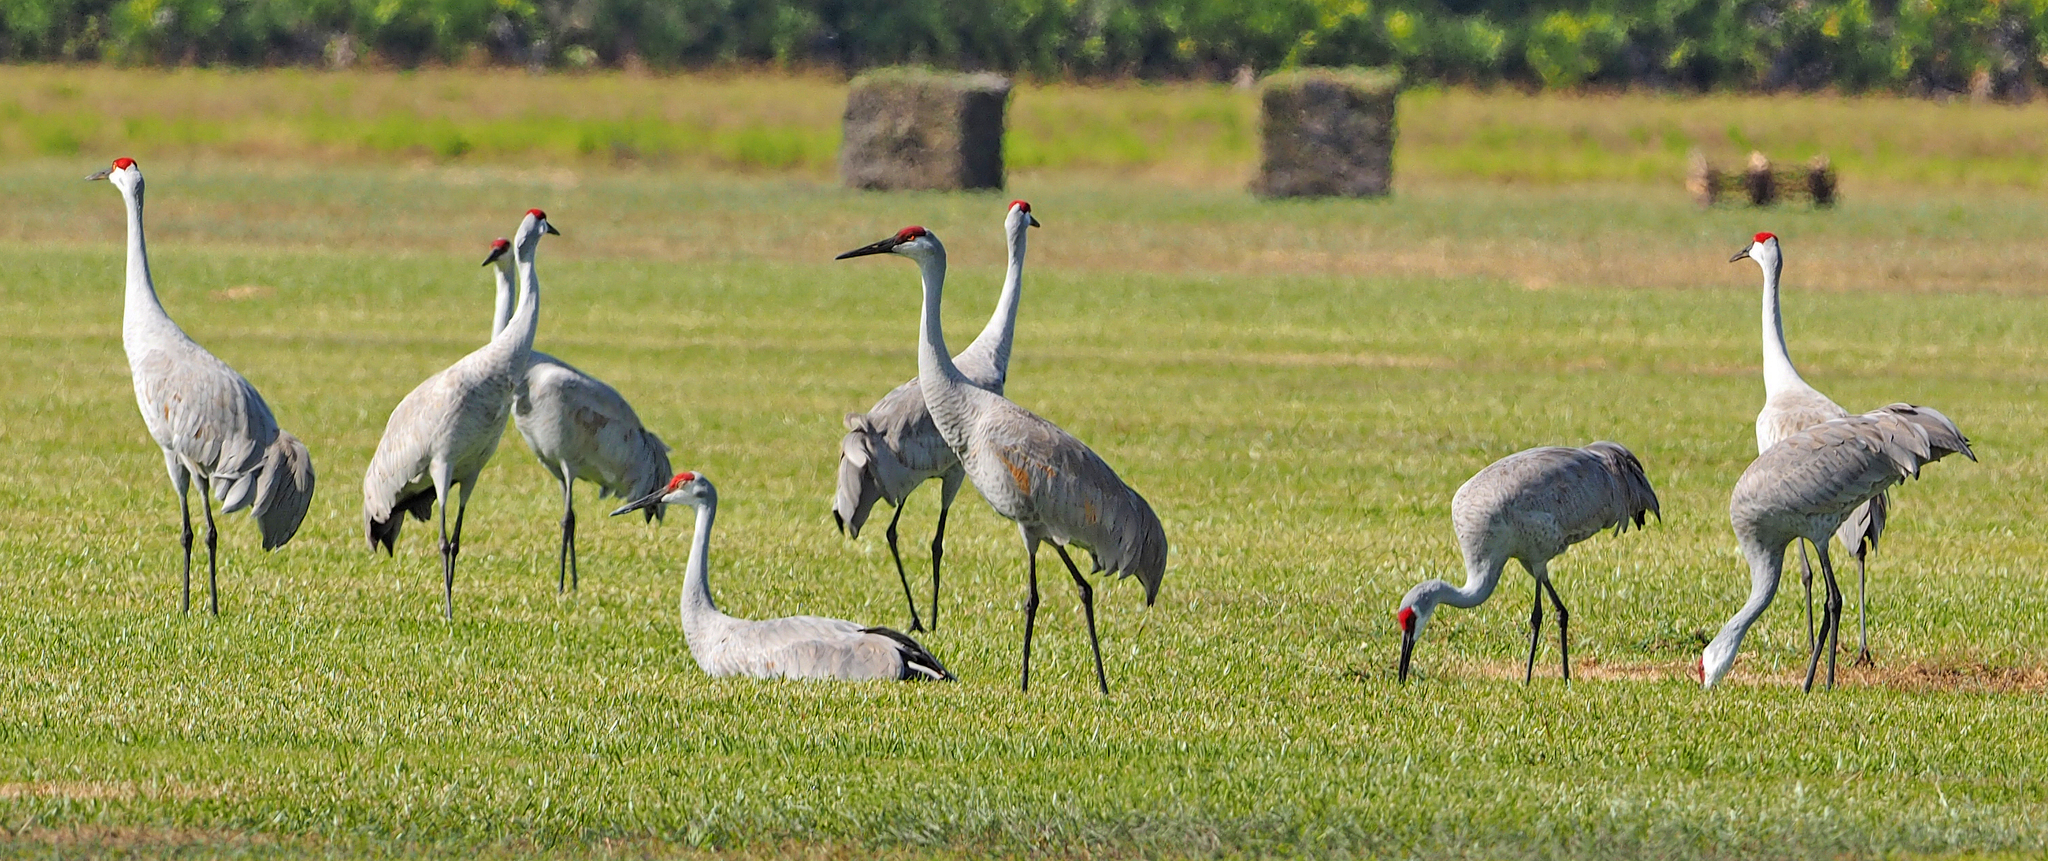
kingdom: Animalia
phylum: Chordata
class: Aves
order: Gruiformes
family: Gruidae
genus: Grus
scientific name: Grus canadensis
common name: Sandhill crane
